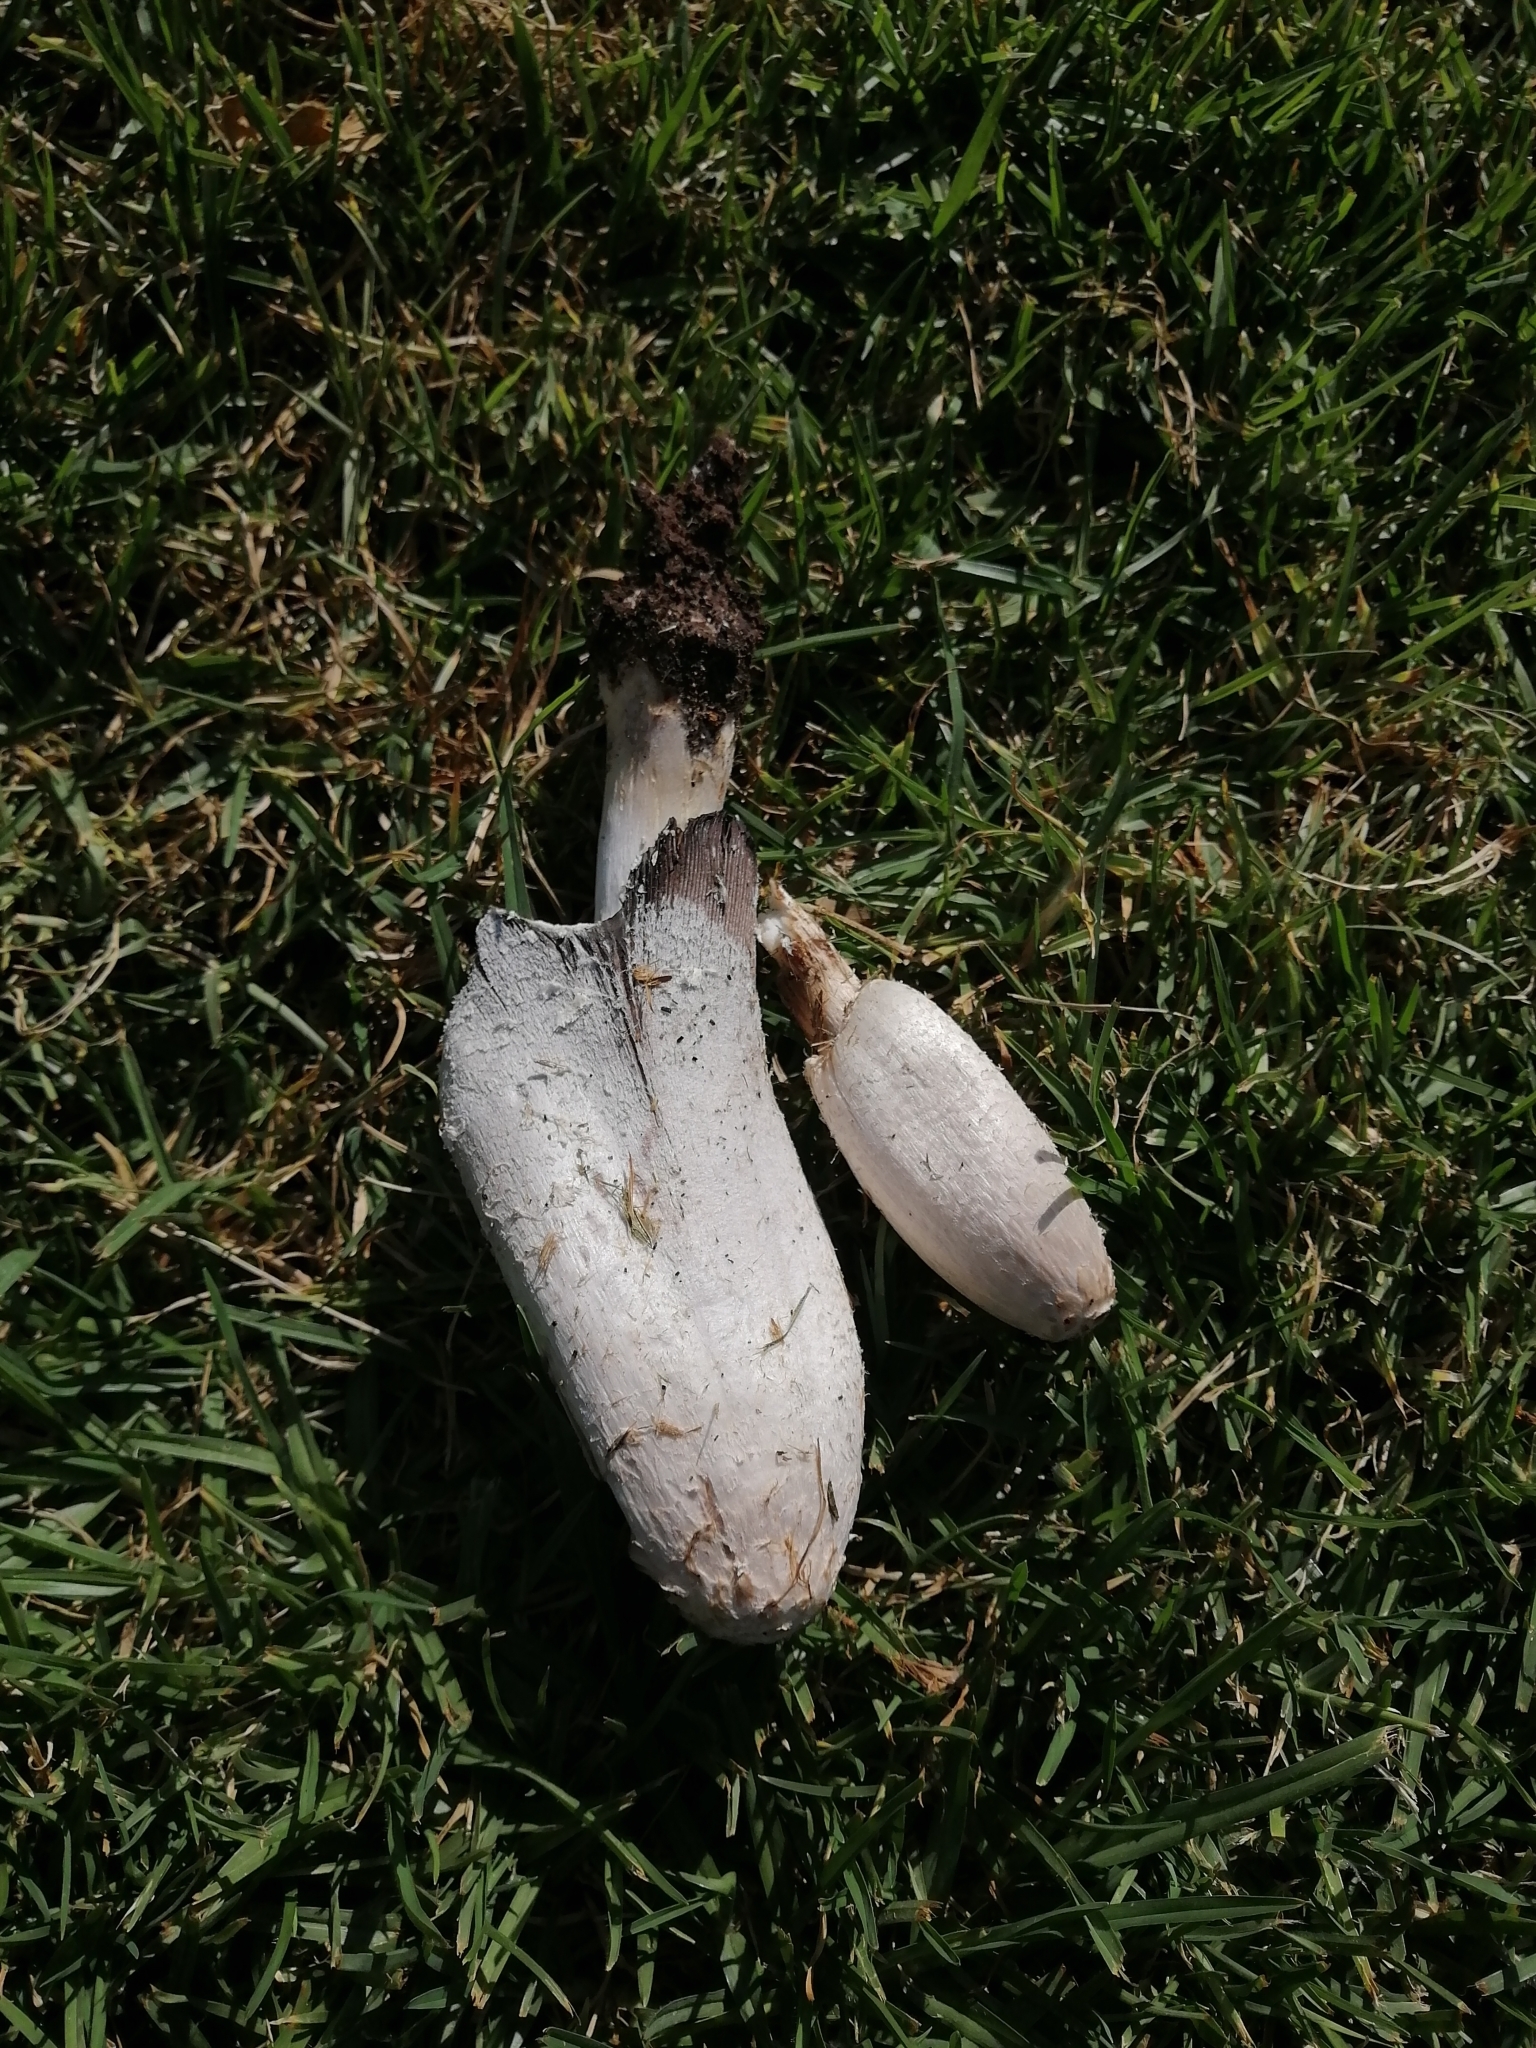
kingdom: Fungi
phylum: Basidiomycota
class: Agaricomycetes
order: Agaricales
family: Agaricaceae
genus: Coprinus
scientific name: Coprinus comatus
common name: Lawyer's wig
